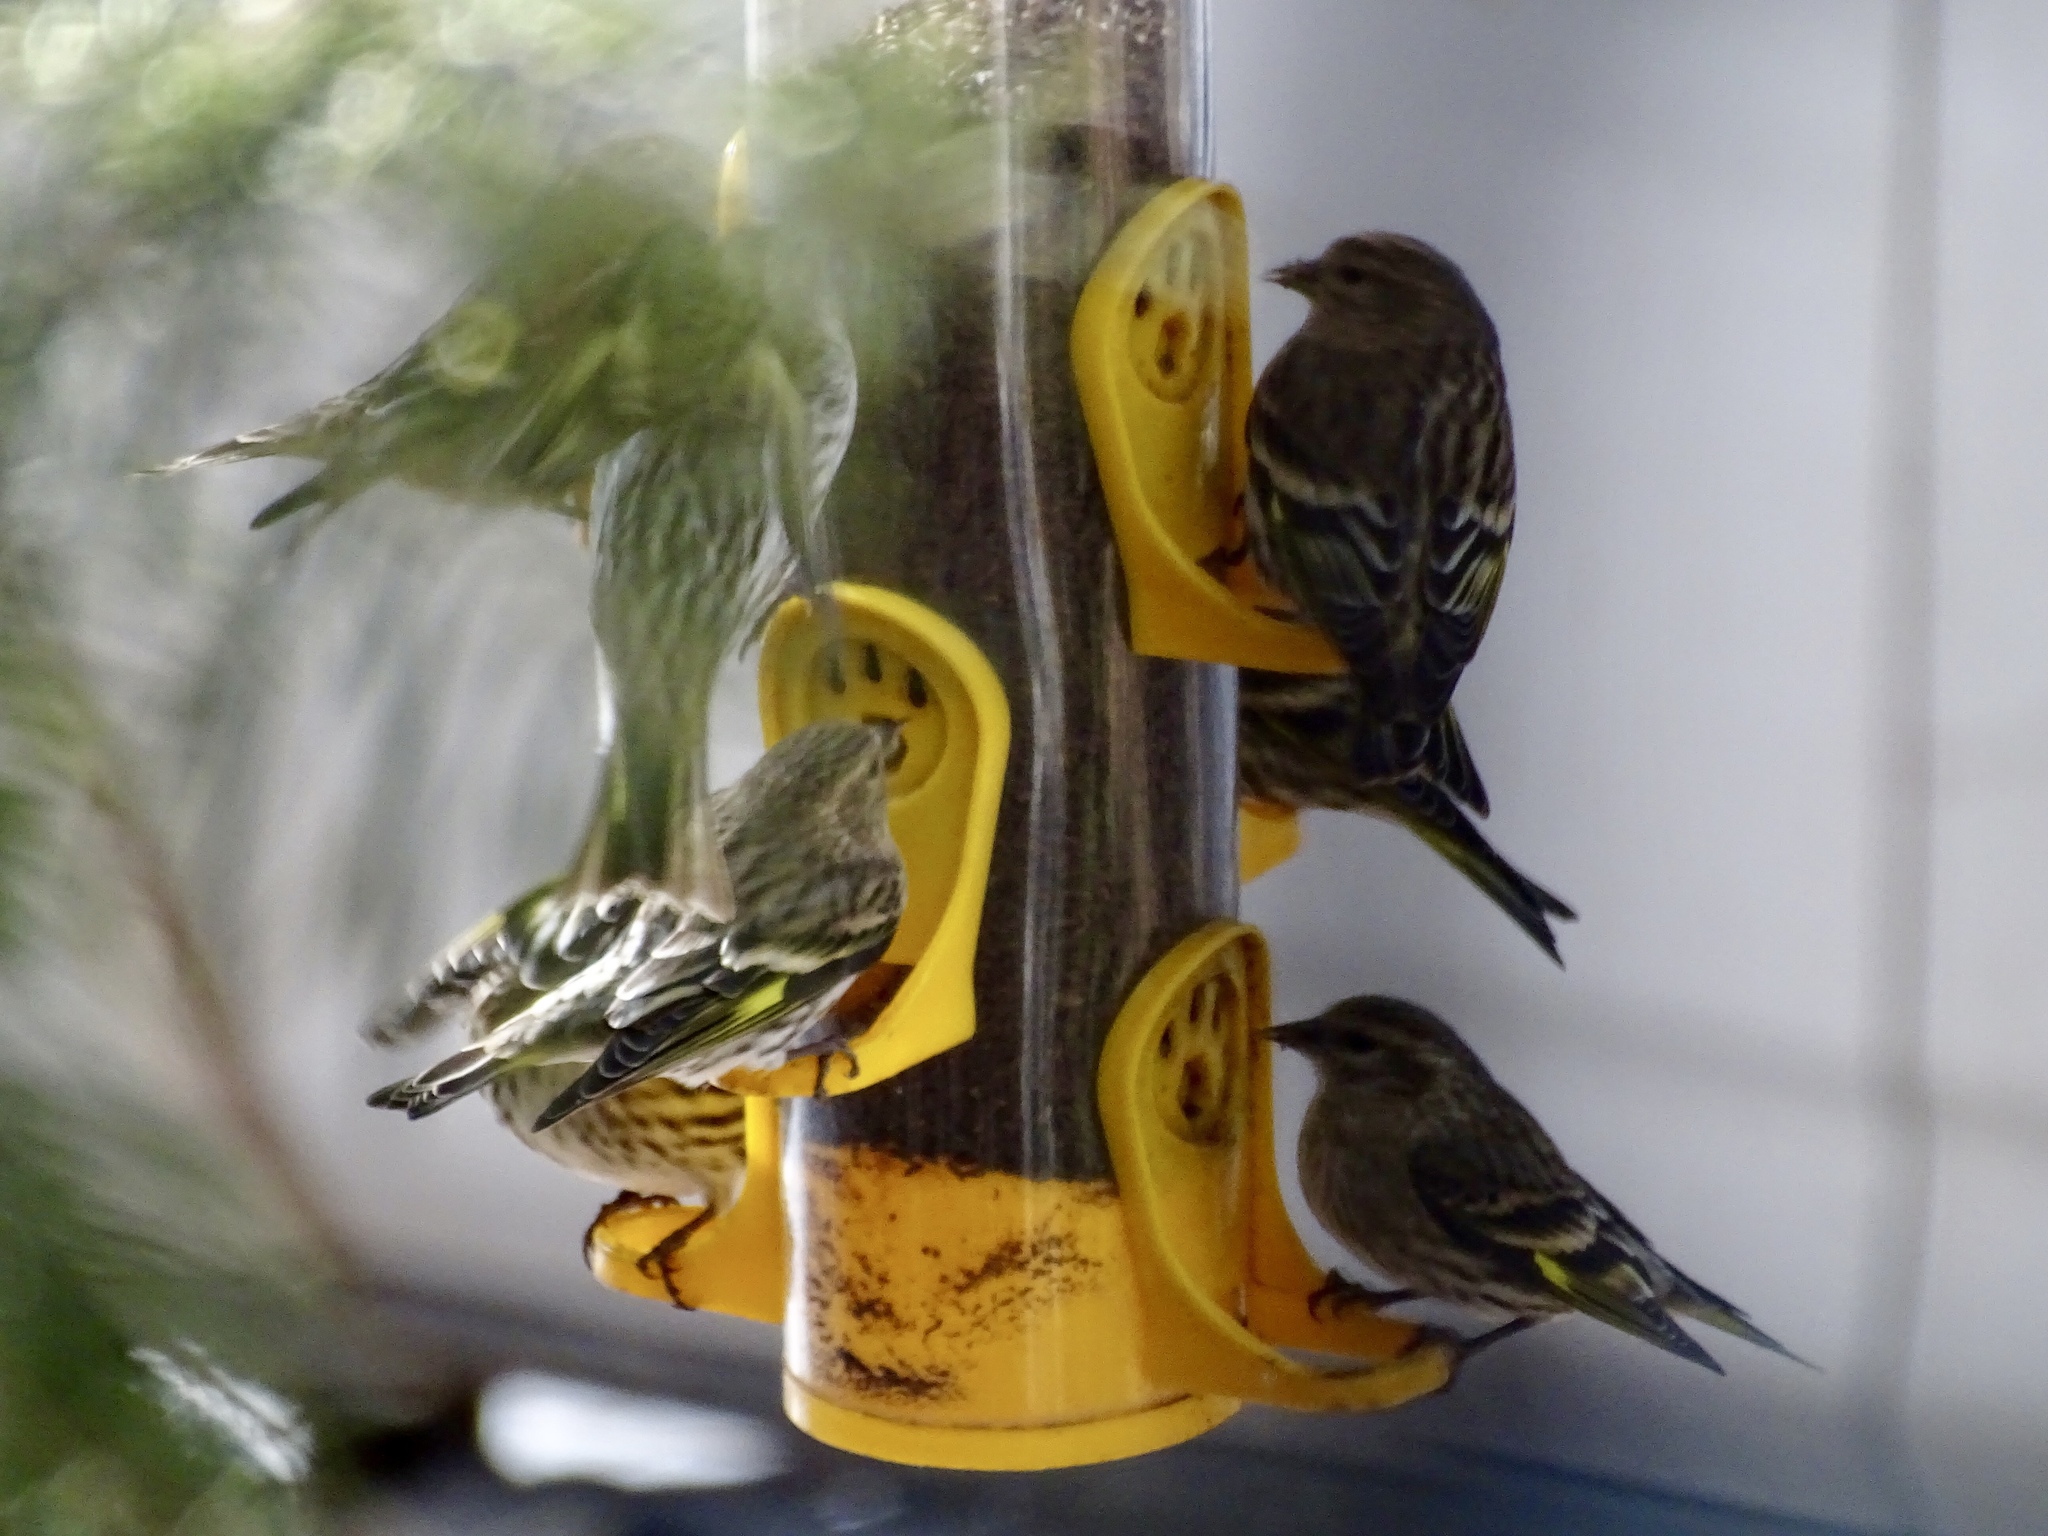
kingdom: Animalia
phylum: Chordata
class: Aves
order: Passeriformes
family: Fringillidae
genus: Spinus
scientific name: Spinus pinus
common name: Pine siskin
